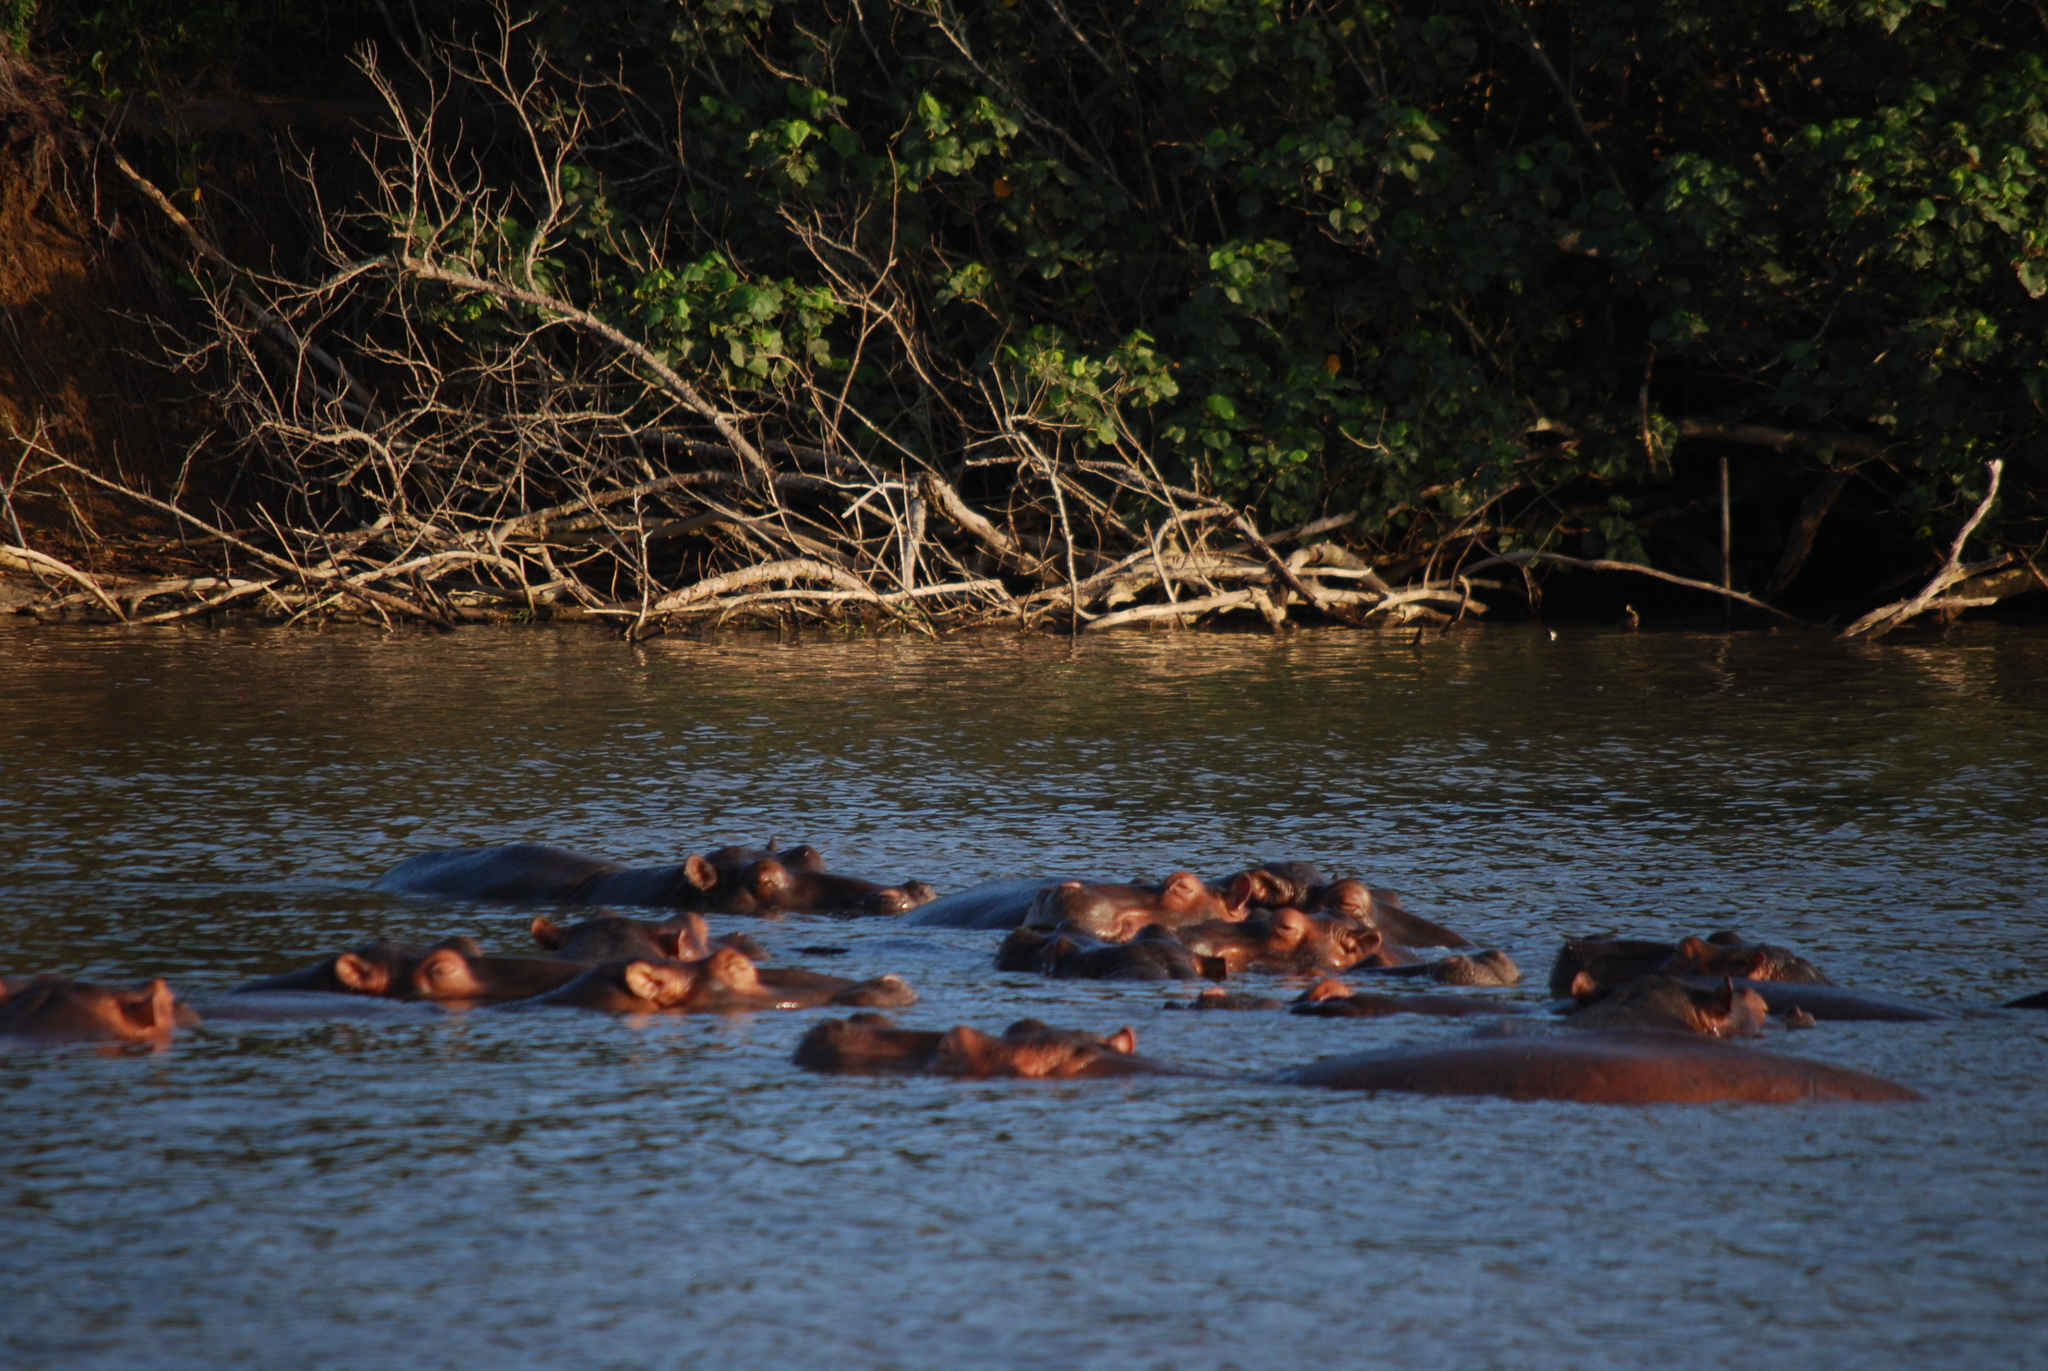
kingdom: Animalia
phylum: Chordata
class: Mammalia
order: Artiodactyla
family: Hippopotamidae
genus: Hippopotamus
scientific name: Hippopotamus amphibius
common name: Common hippopotamus
